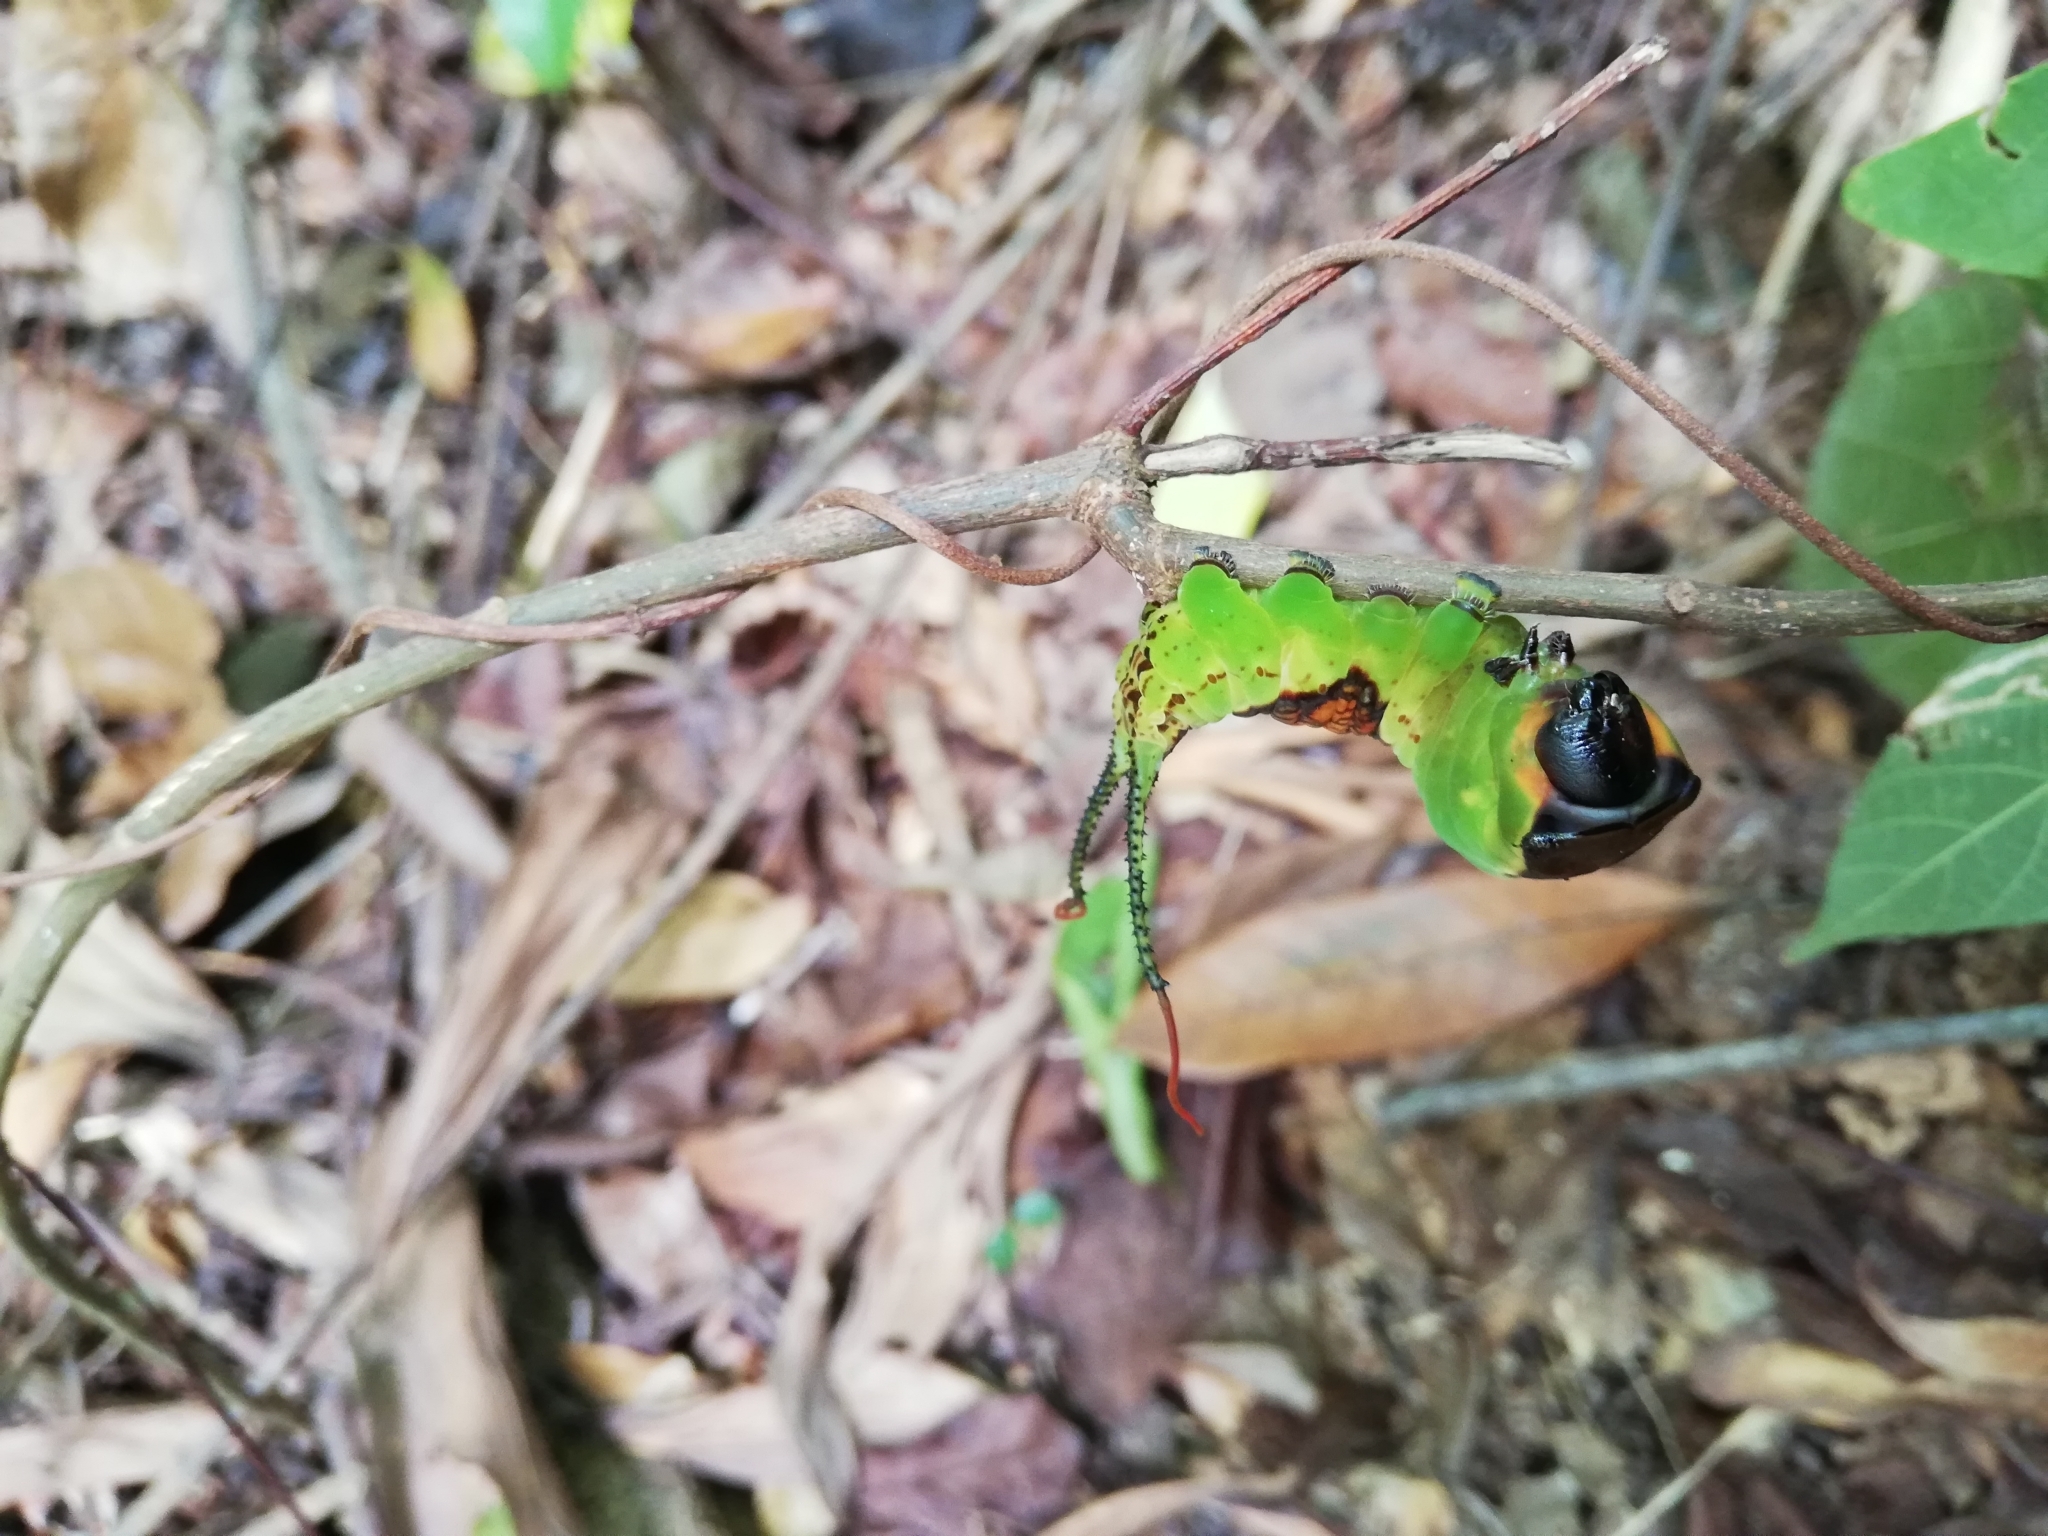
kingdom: Animalia
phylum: Arthropoda
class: Insecta
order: Lepidoptera
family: Notodontidae
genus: Kamalia
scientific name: Kamalia multipunctata
